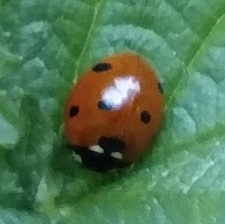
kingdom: Animalia
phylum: Arthropoda
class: Insecta
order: Coleoptera
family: Coccinellidae
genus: Coccinella
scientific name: Coccinella septempunctata
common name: Sevenspotted lady beetle
